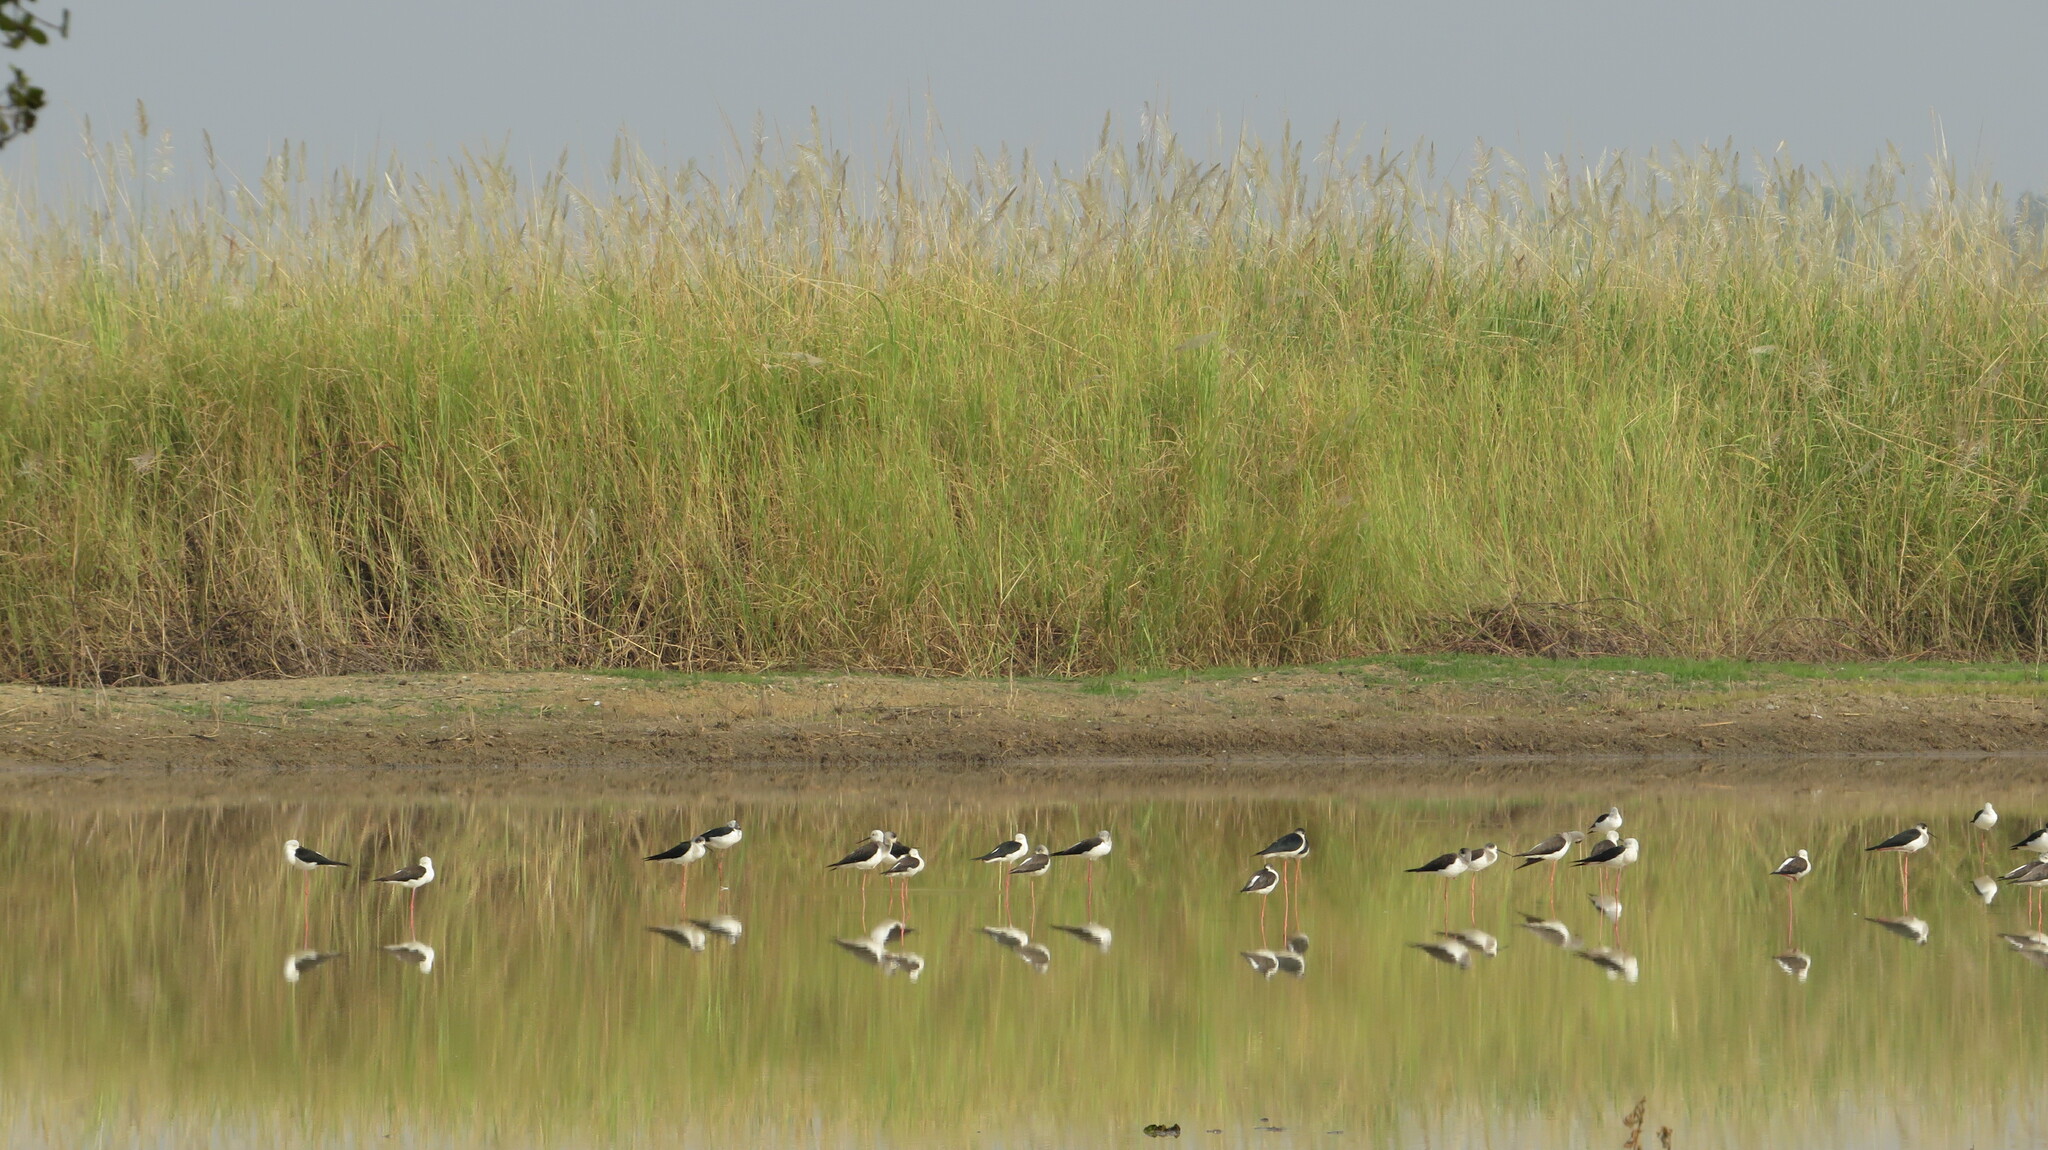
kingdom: Animalia
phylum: Chordata
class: Aves
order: Charadriiformes
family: Recurvirostridae
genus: Himantopus
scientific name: Himantopus himantopus
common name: Black-winged stilt
